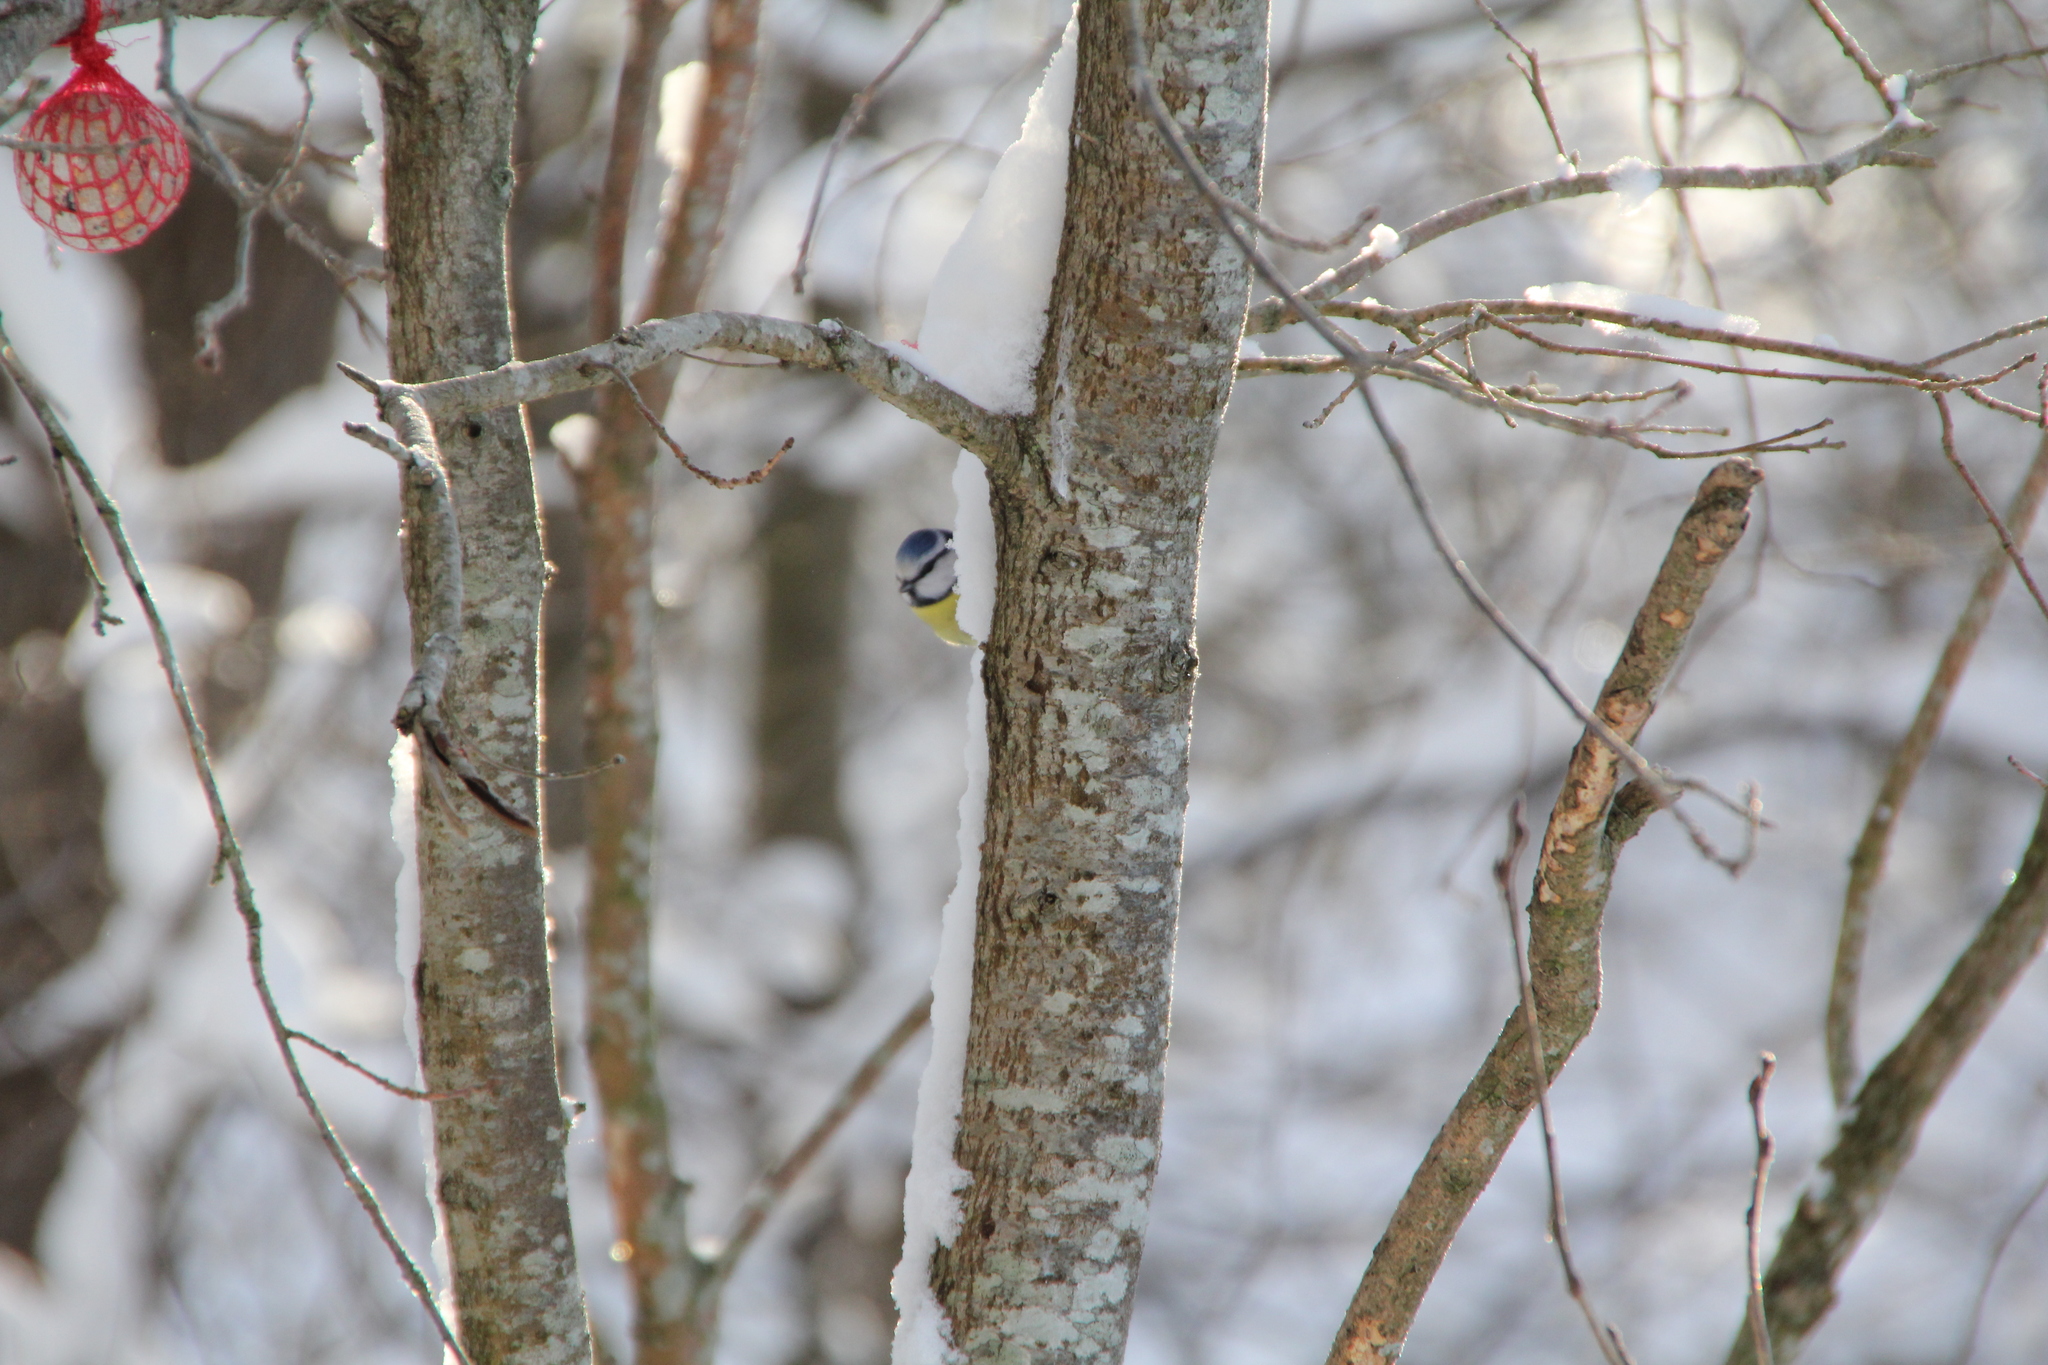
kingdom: Animalia
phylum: Chordata
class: Aves
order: Passeriformes
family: Paridae
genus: Cyanistes
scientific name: Cyanistes caeruleus
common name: Eurasian blue tit
